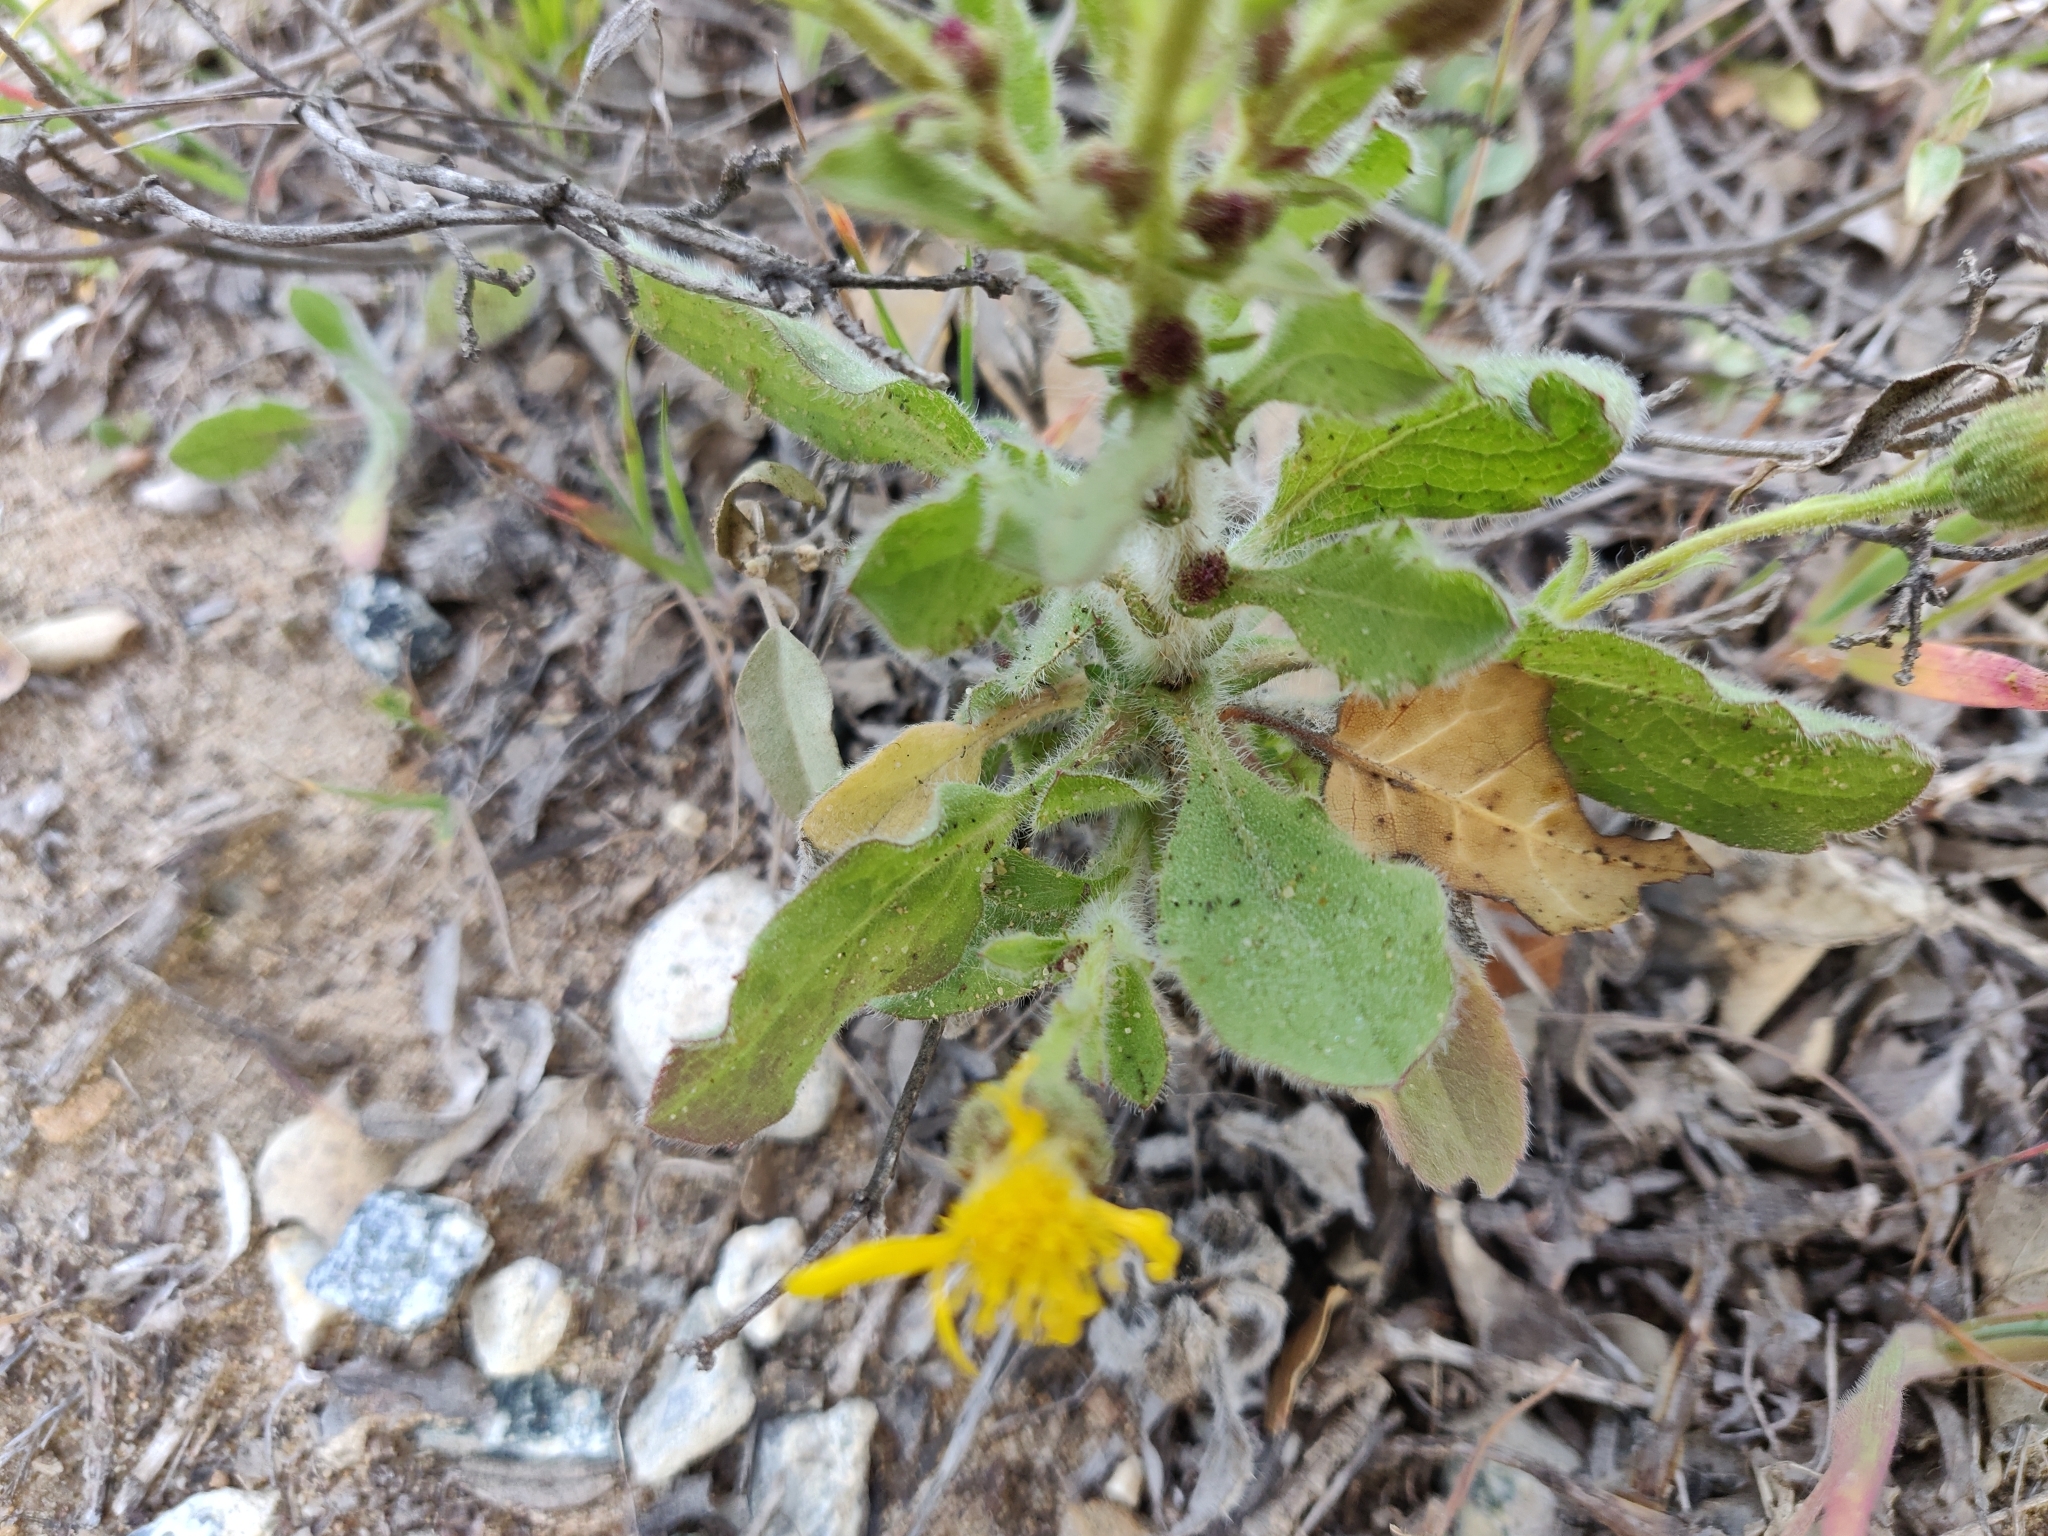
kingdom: Plantae
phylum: Tracheophyta
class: Magnoliopsida
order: Asterales
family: Asteraceae
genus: Heterotheca
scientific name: Heterotheca grandiflora
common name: Telegraphweed
